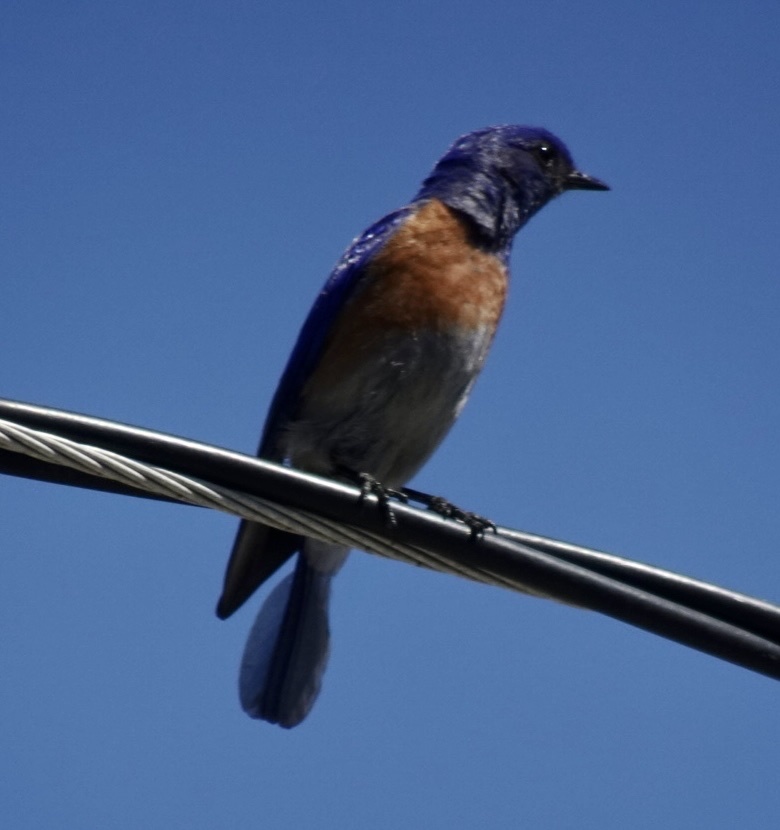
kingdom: Animalia
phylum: Chordata
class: Aves
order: Passeriformes
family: Turdidae
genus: Sialia
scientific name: Sialia mexicana
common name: Western bluebird
